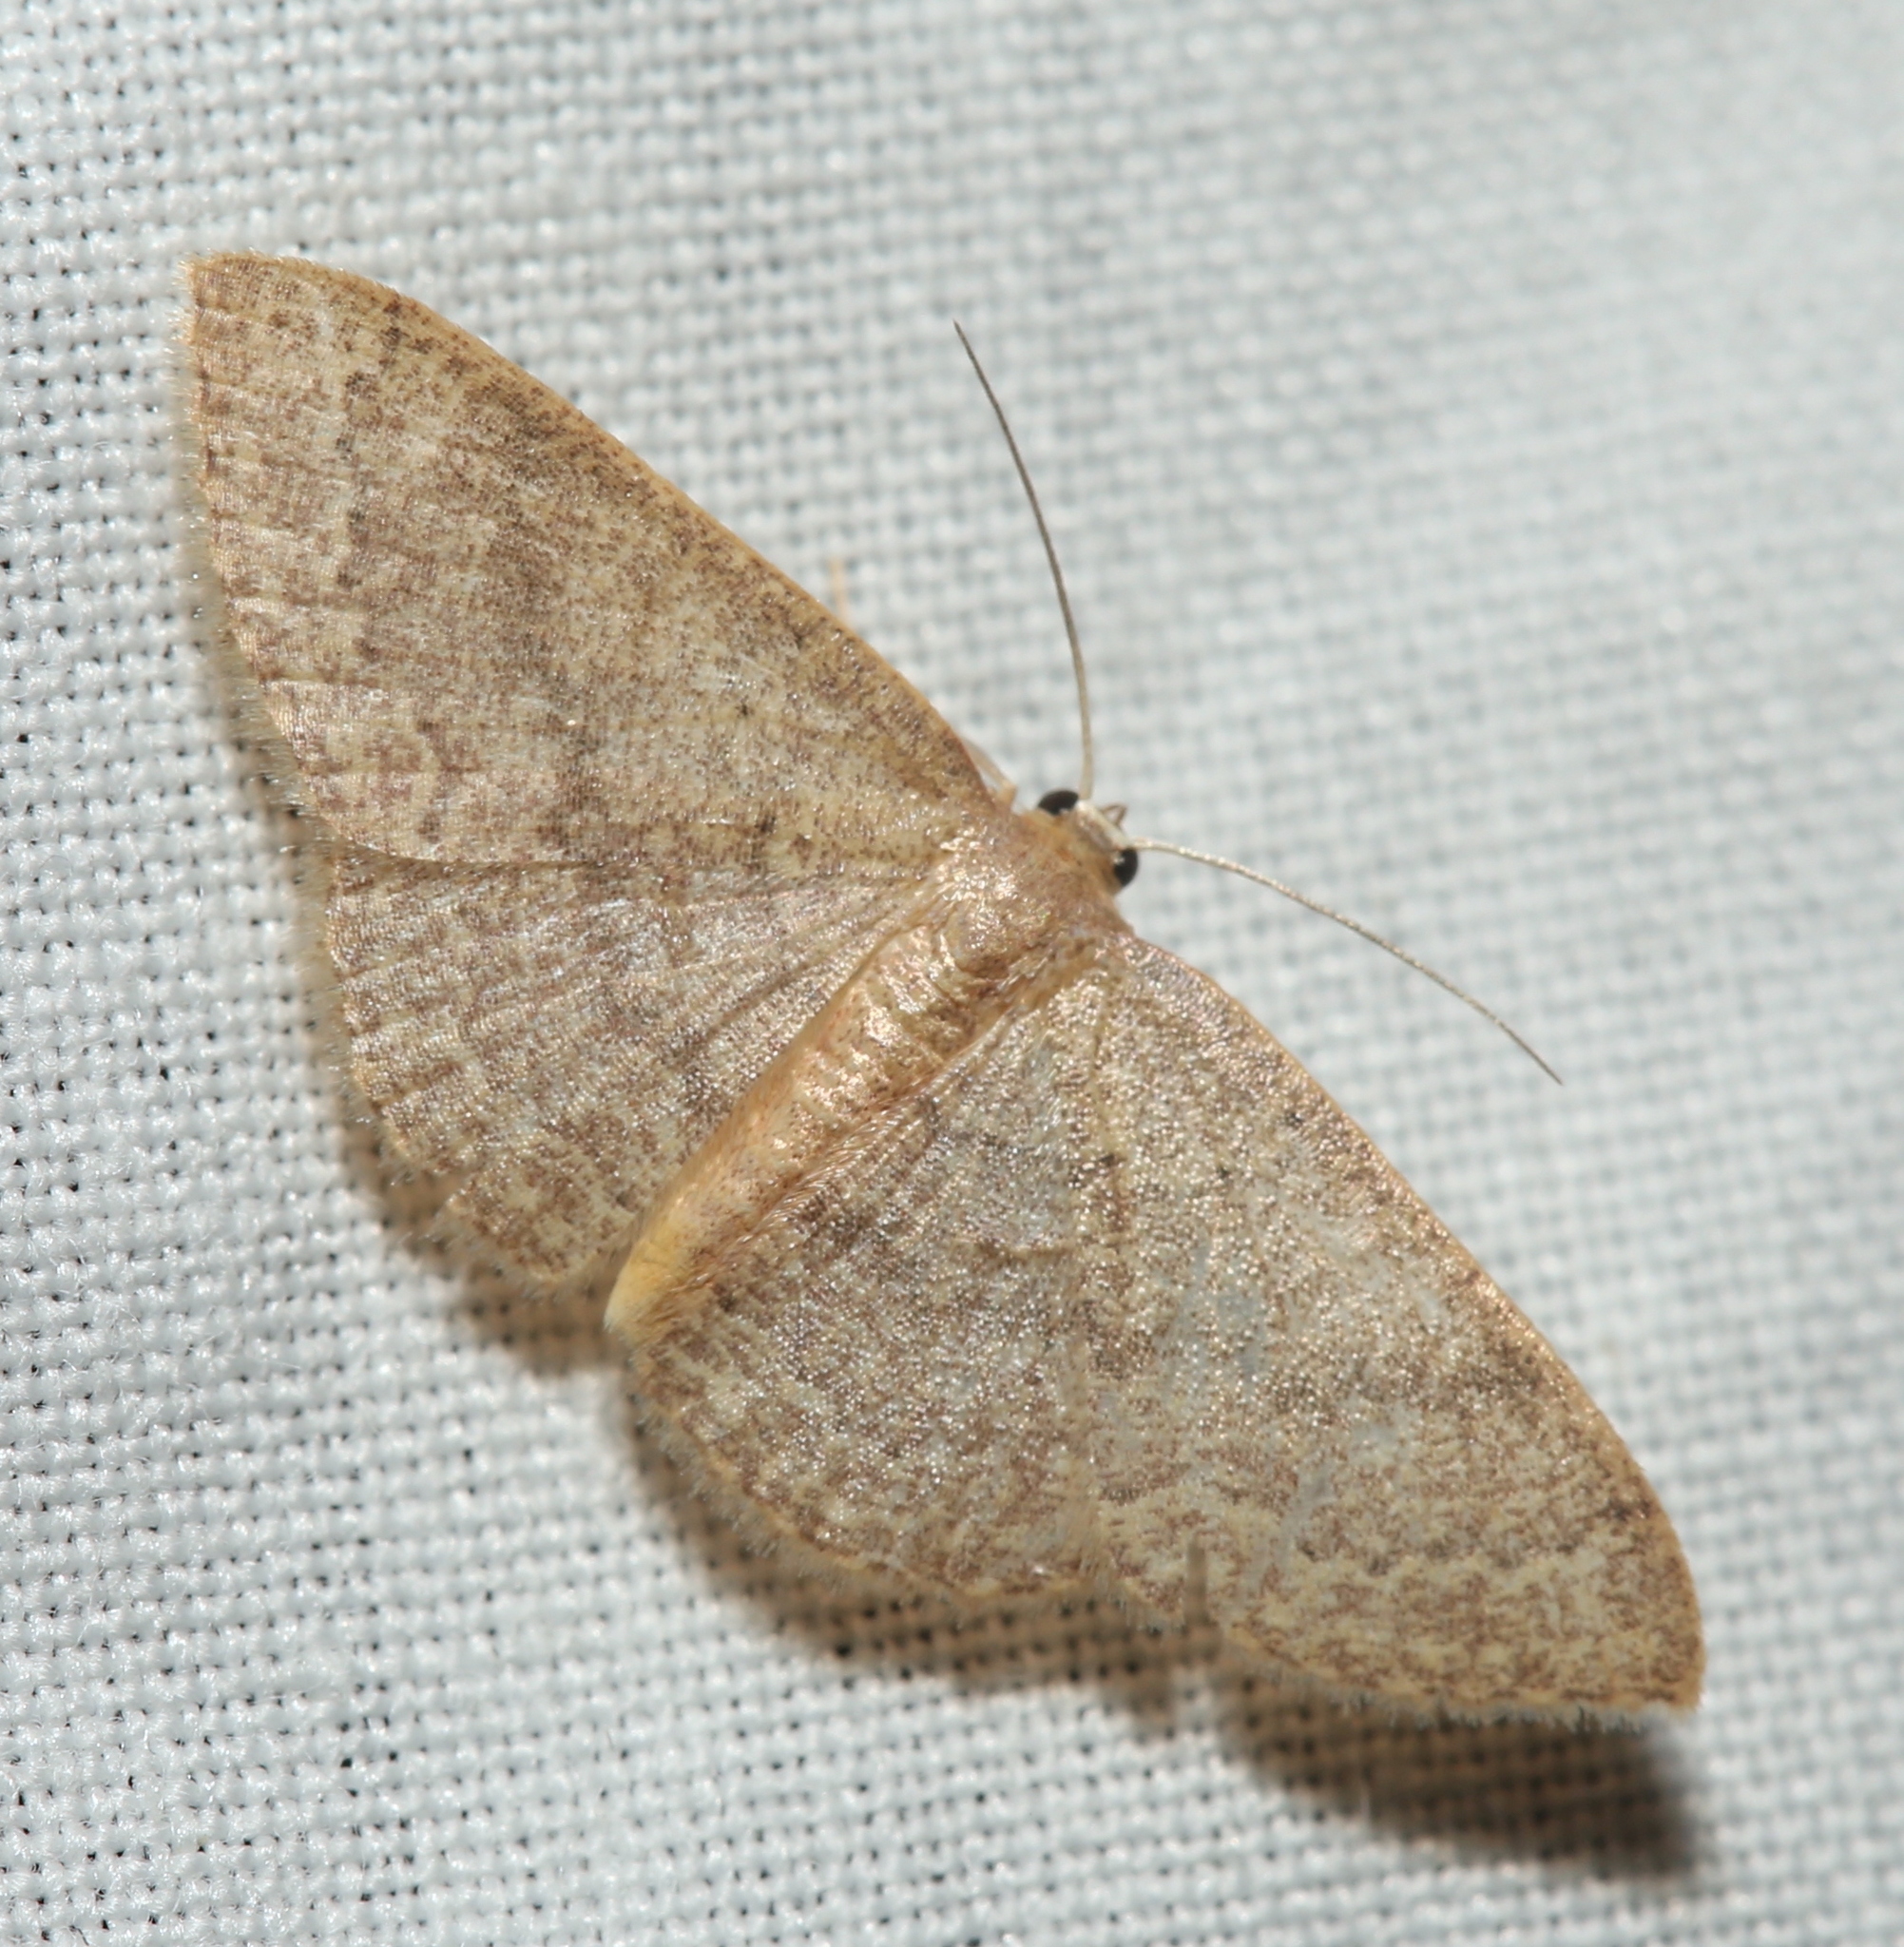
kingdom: Animalia
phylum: Arthropoda
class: Insecta
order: Lepidoptera
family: Geometridae
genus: Pleuroprucha
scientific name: Pleuroprucha insulsaria
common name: Common tan wave
